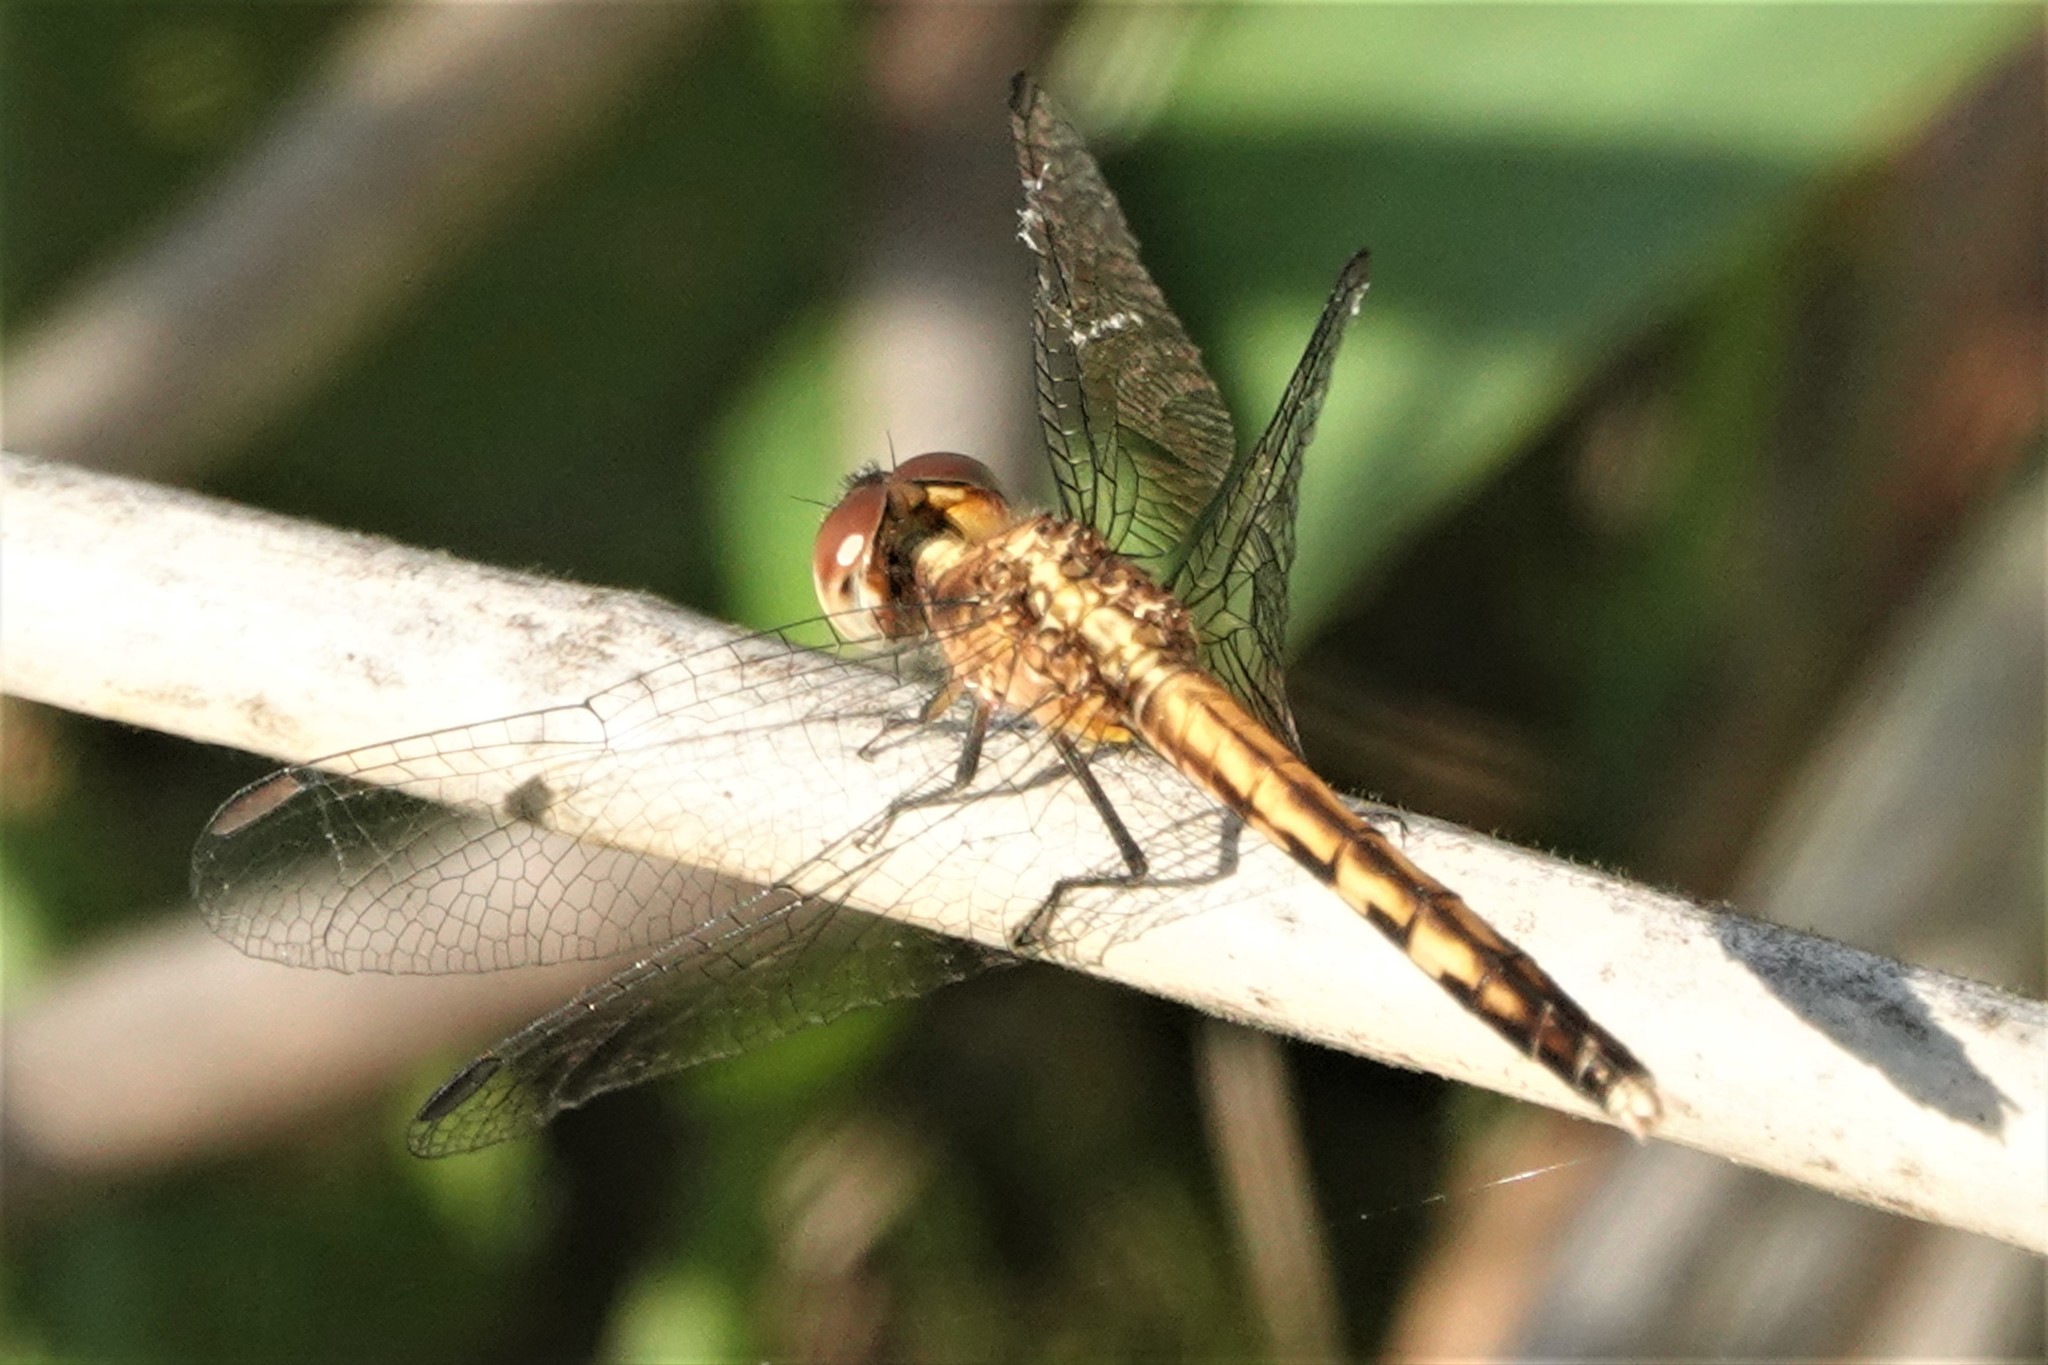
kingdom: Animalia
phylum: Arthropoda
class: Insecta
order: Odonata
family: Libellulidae
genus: Erythrodiplax
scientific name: Erythrodiplax minuscula
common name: Little blue dragonlet
